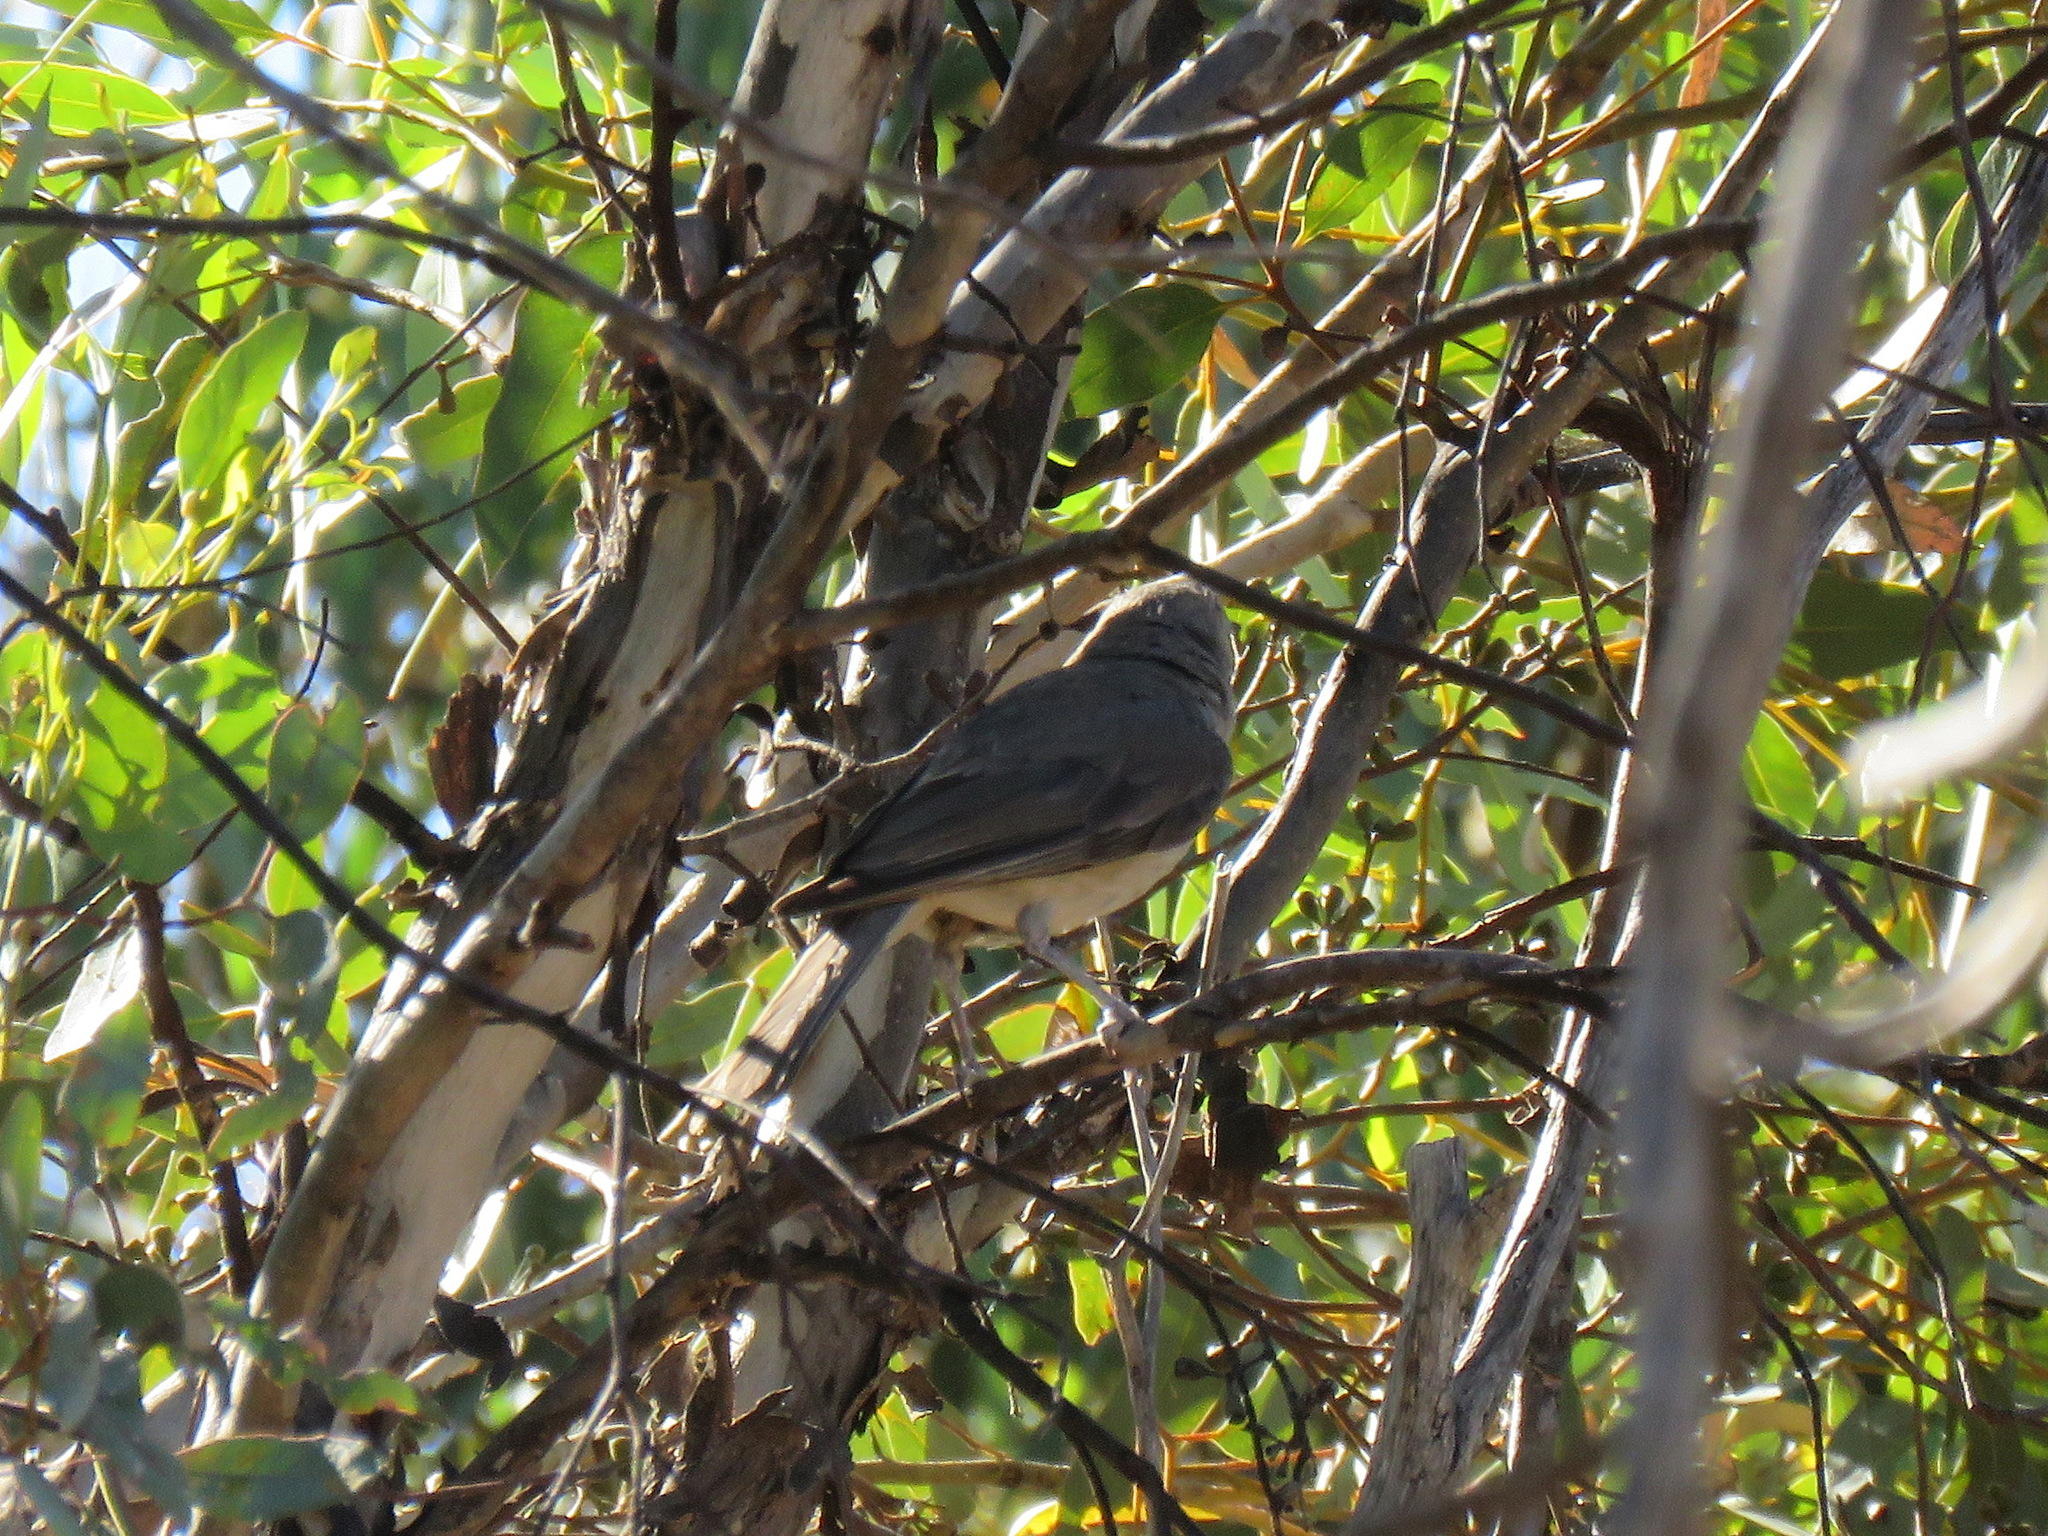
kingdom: Animalia
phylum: Chordata
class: Aves
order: Passeriformes
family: Pachycephalidae
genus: Colluricincla
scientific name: Colluricincla harmonica
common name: Grey shrikethrush
